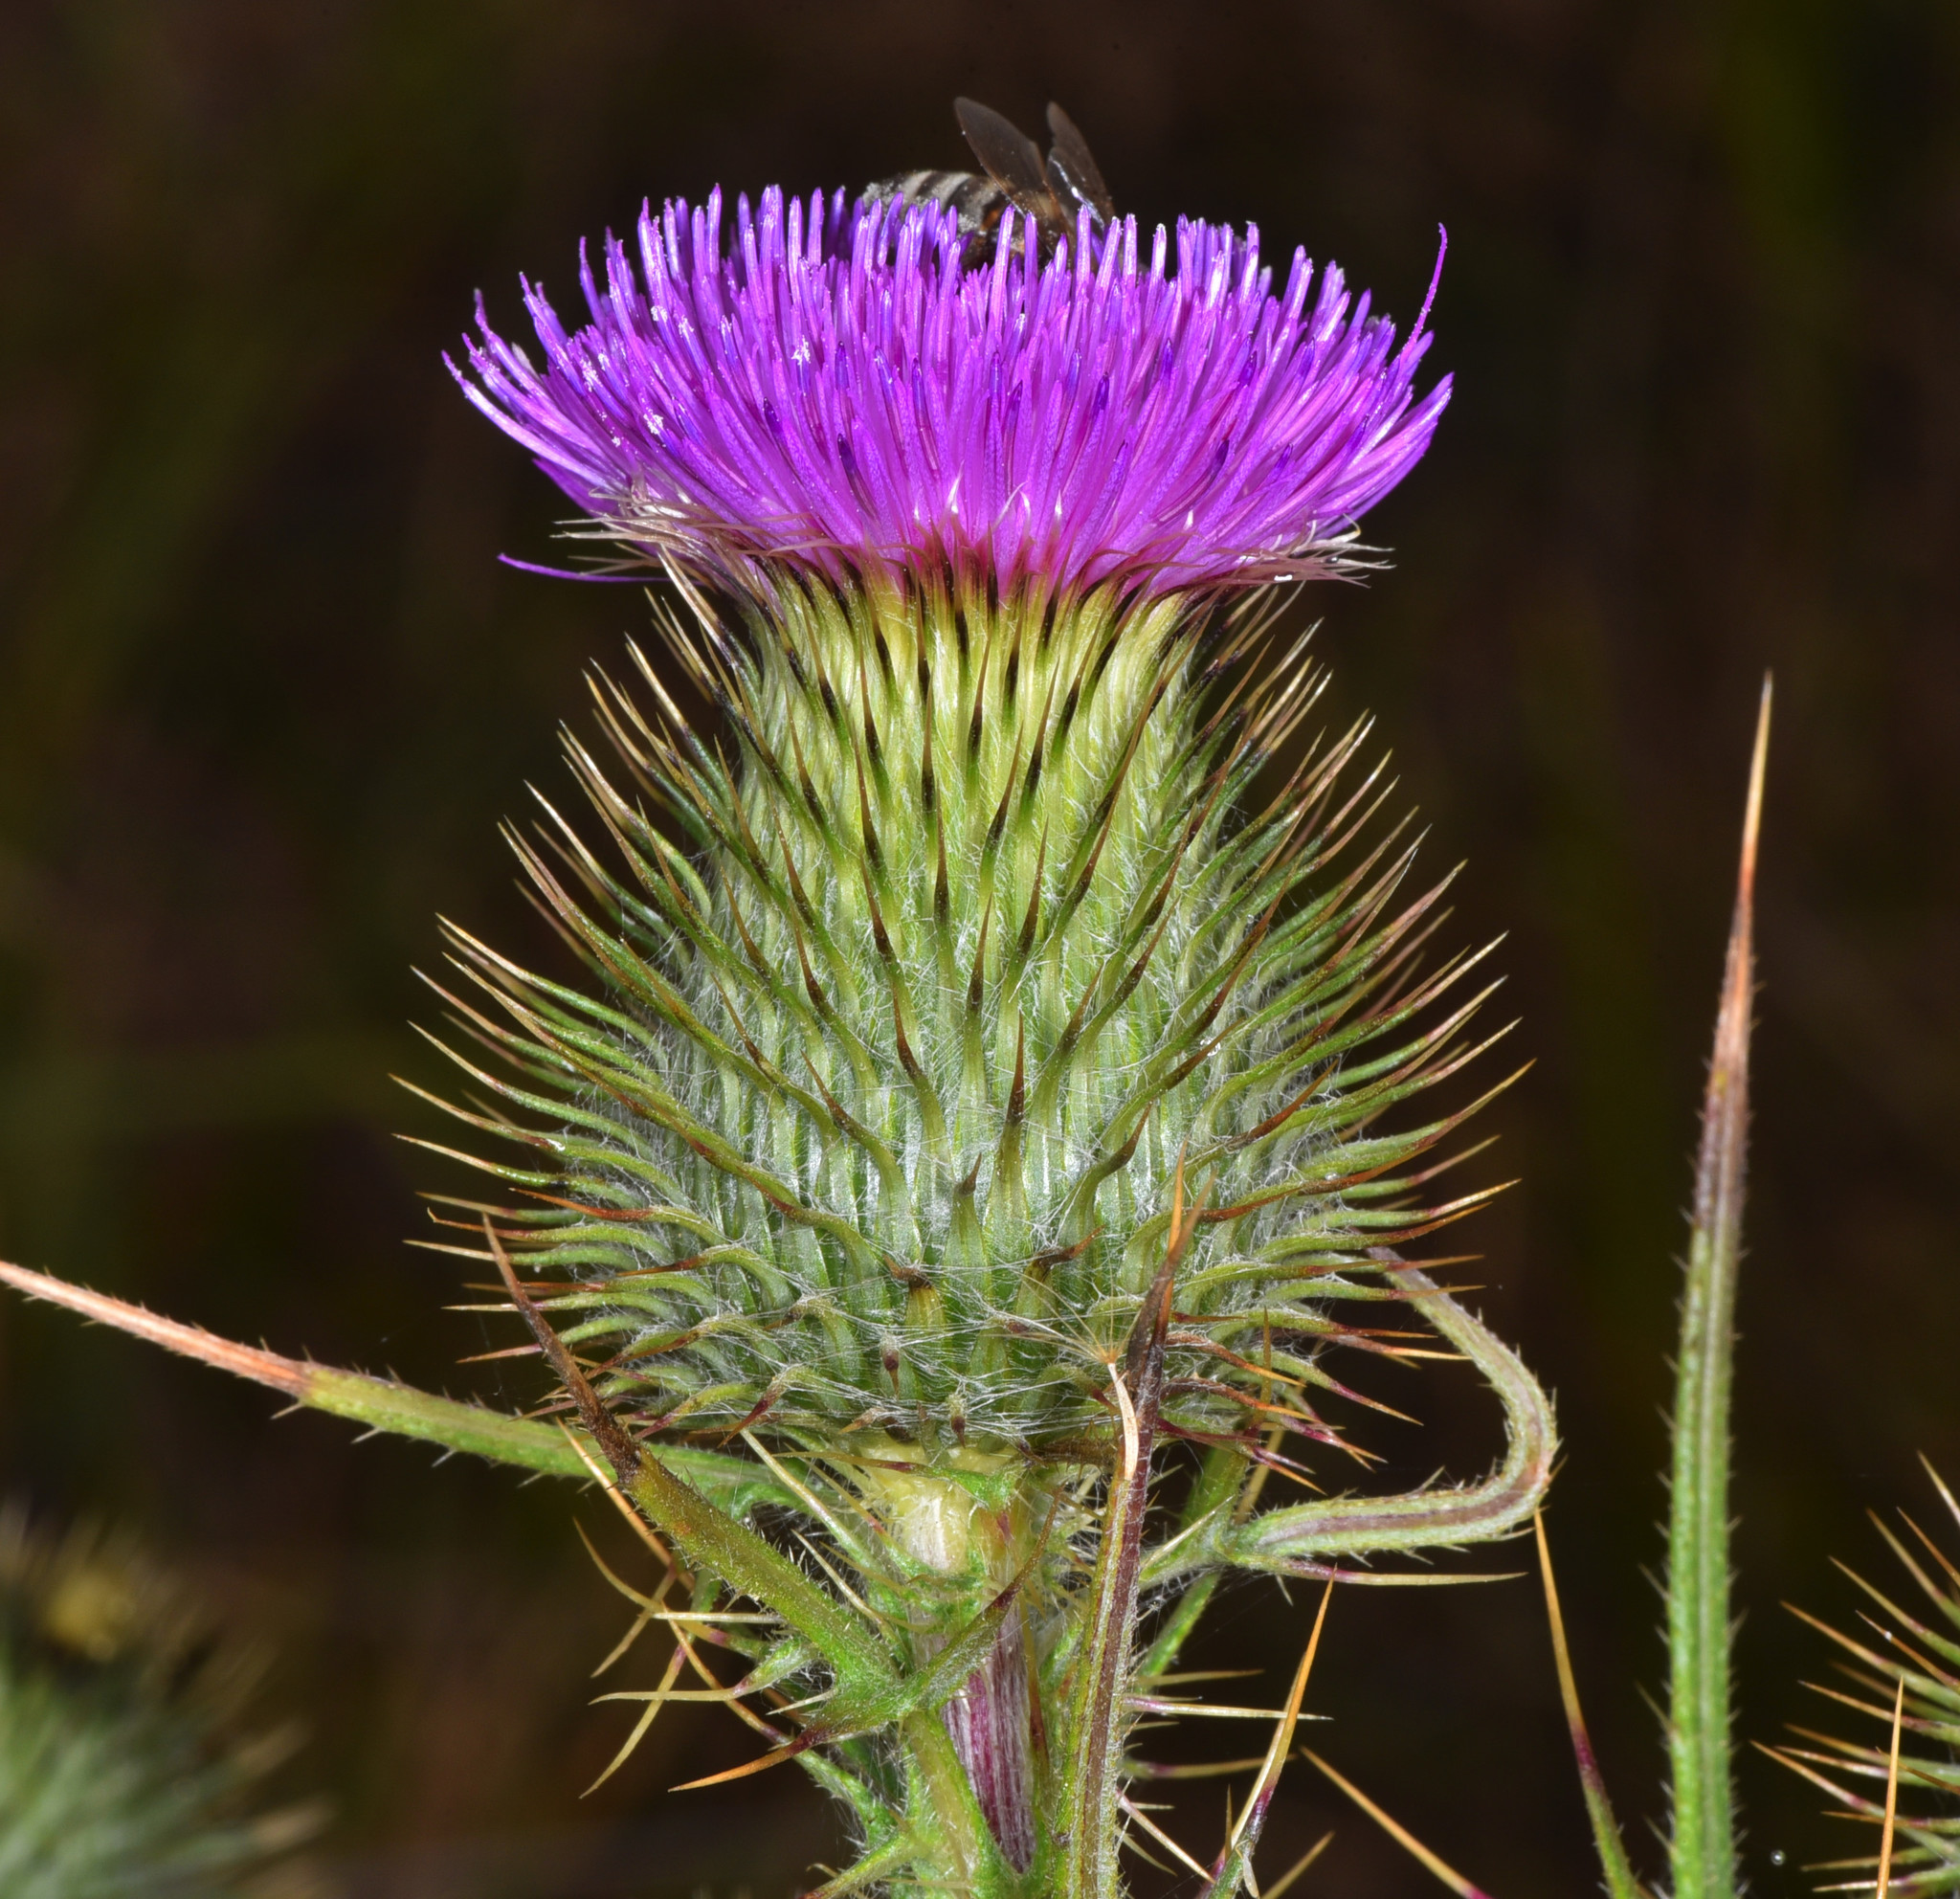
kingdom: Plantae
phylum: Tracheophyta
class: Magnoliopsida
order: Asterales
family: Asteraceae
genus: Cirsium
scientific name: Cirsium vulgare
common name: Bull thistle
